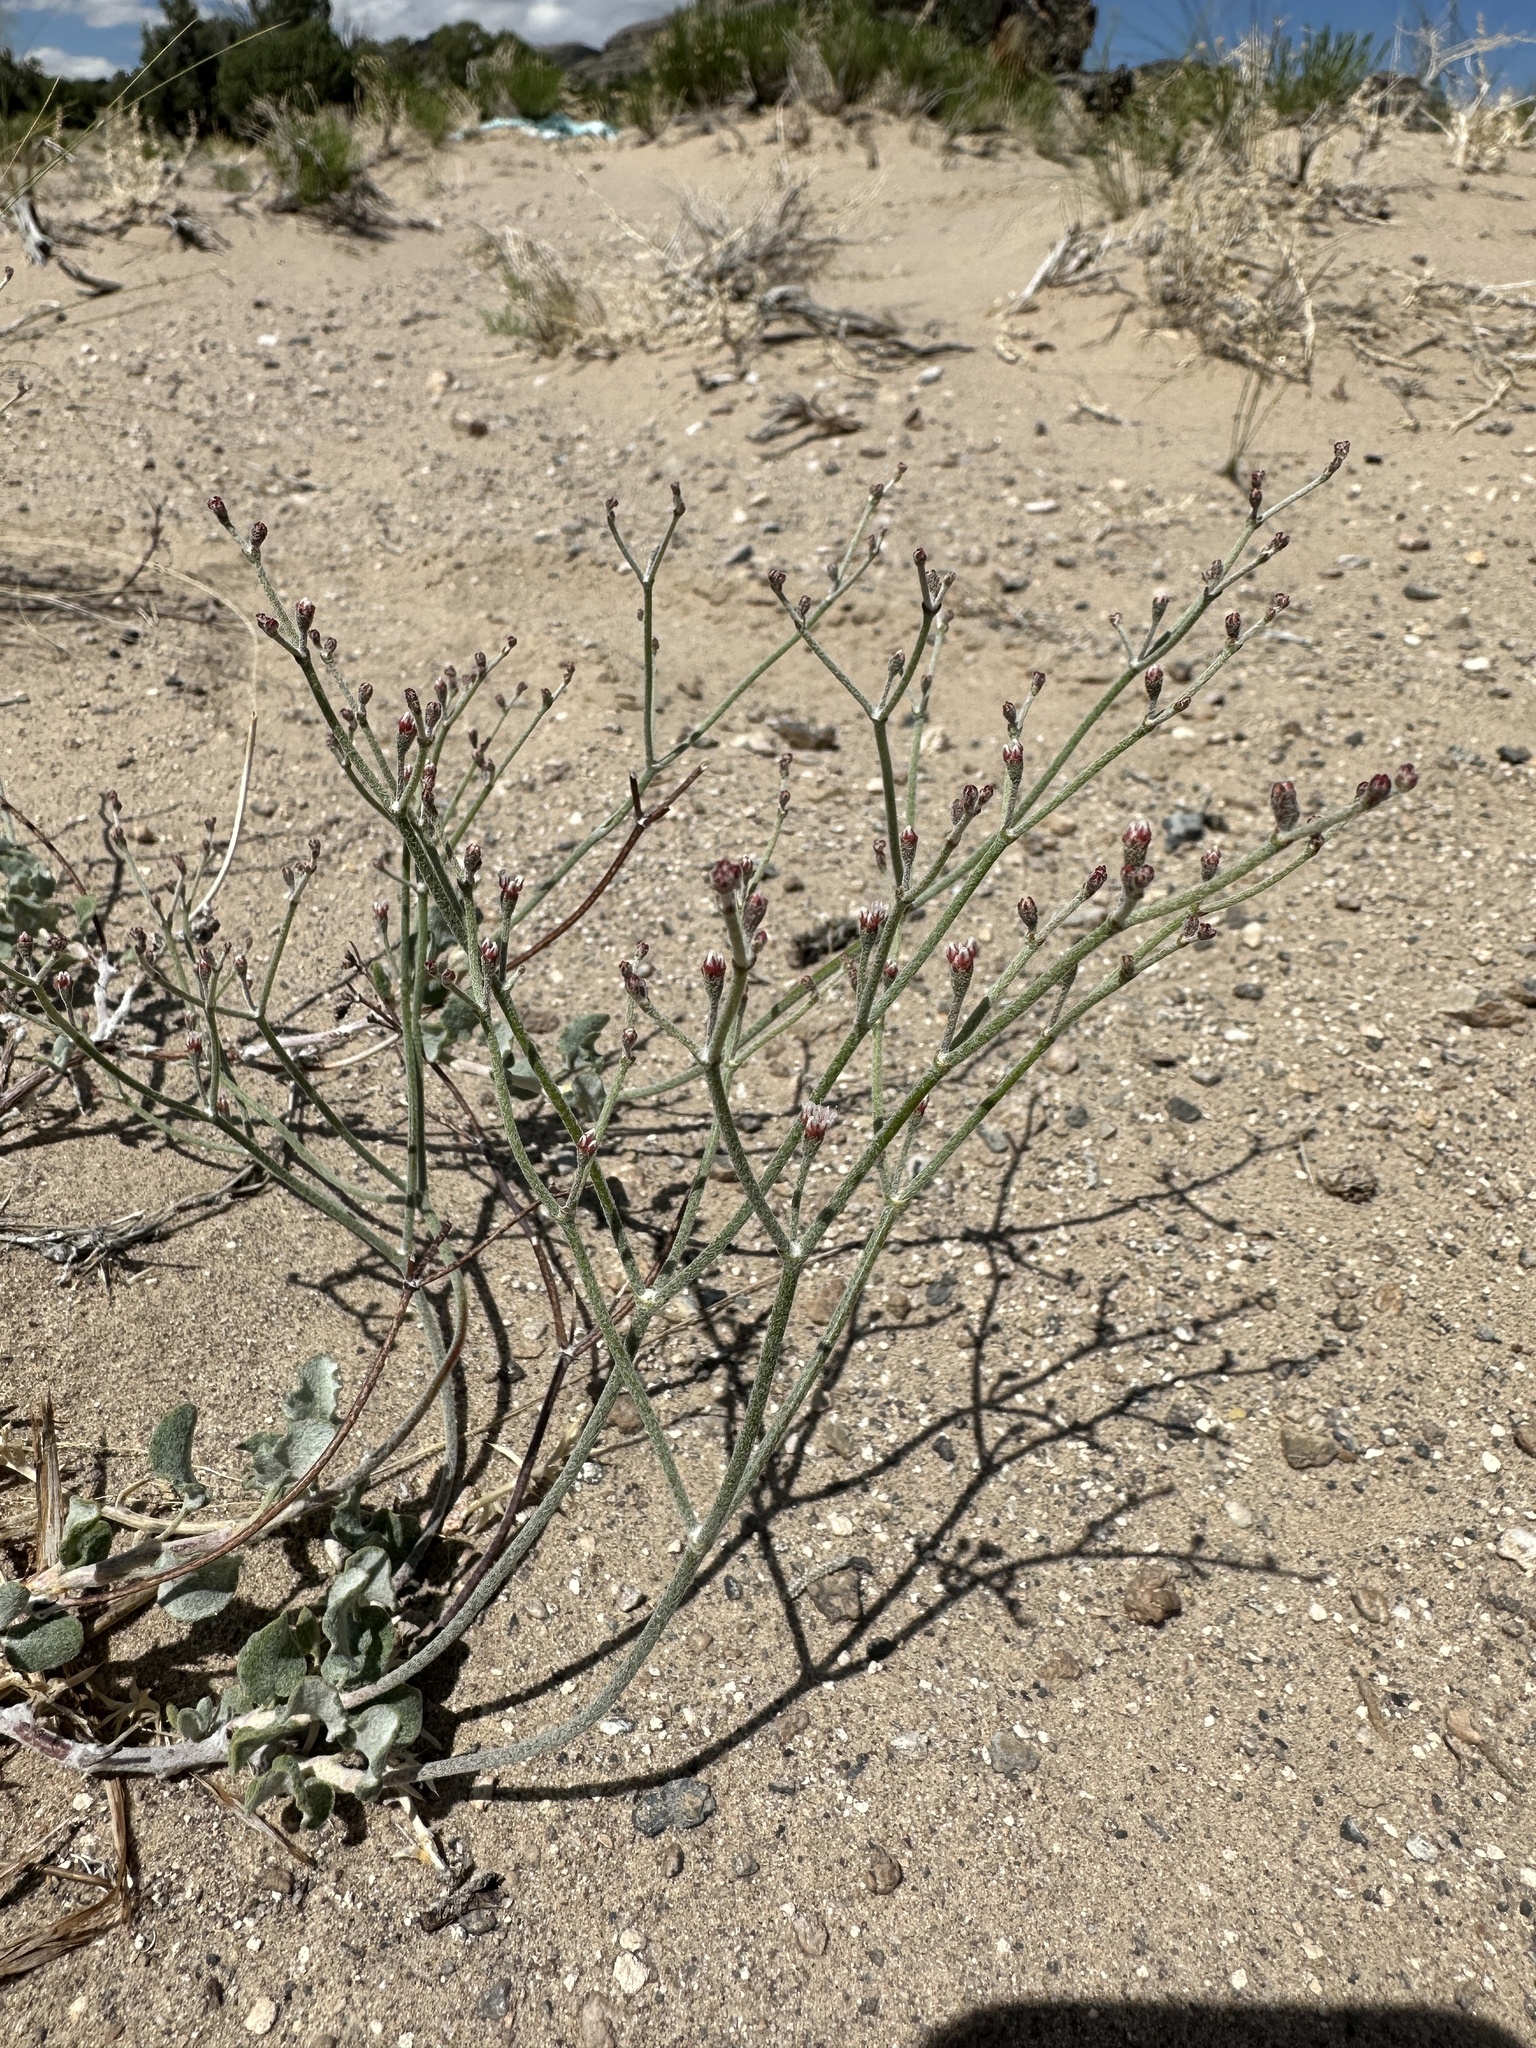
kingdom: Plantae
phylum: Tracheophyta
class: Magnoliopsida
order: Caryophyllales
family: Polygonaceae
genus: Eriogonum
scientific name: Eriogonum nummulare
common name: Kearney wild buckwheat
